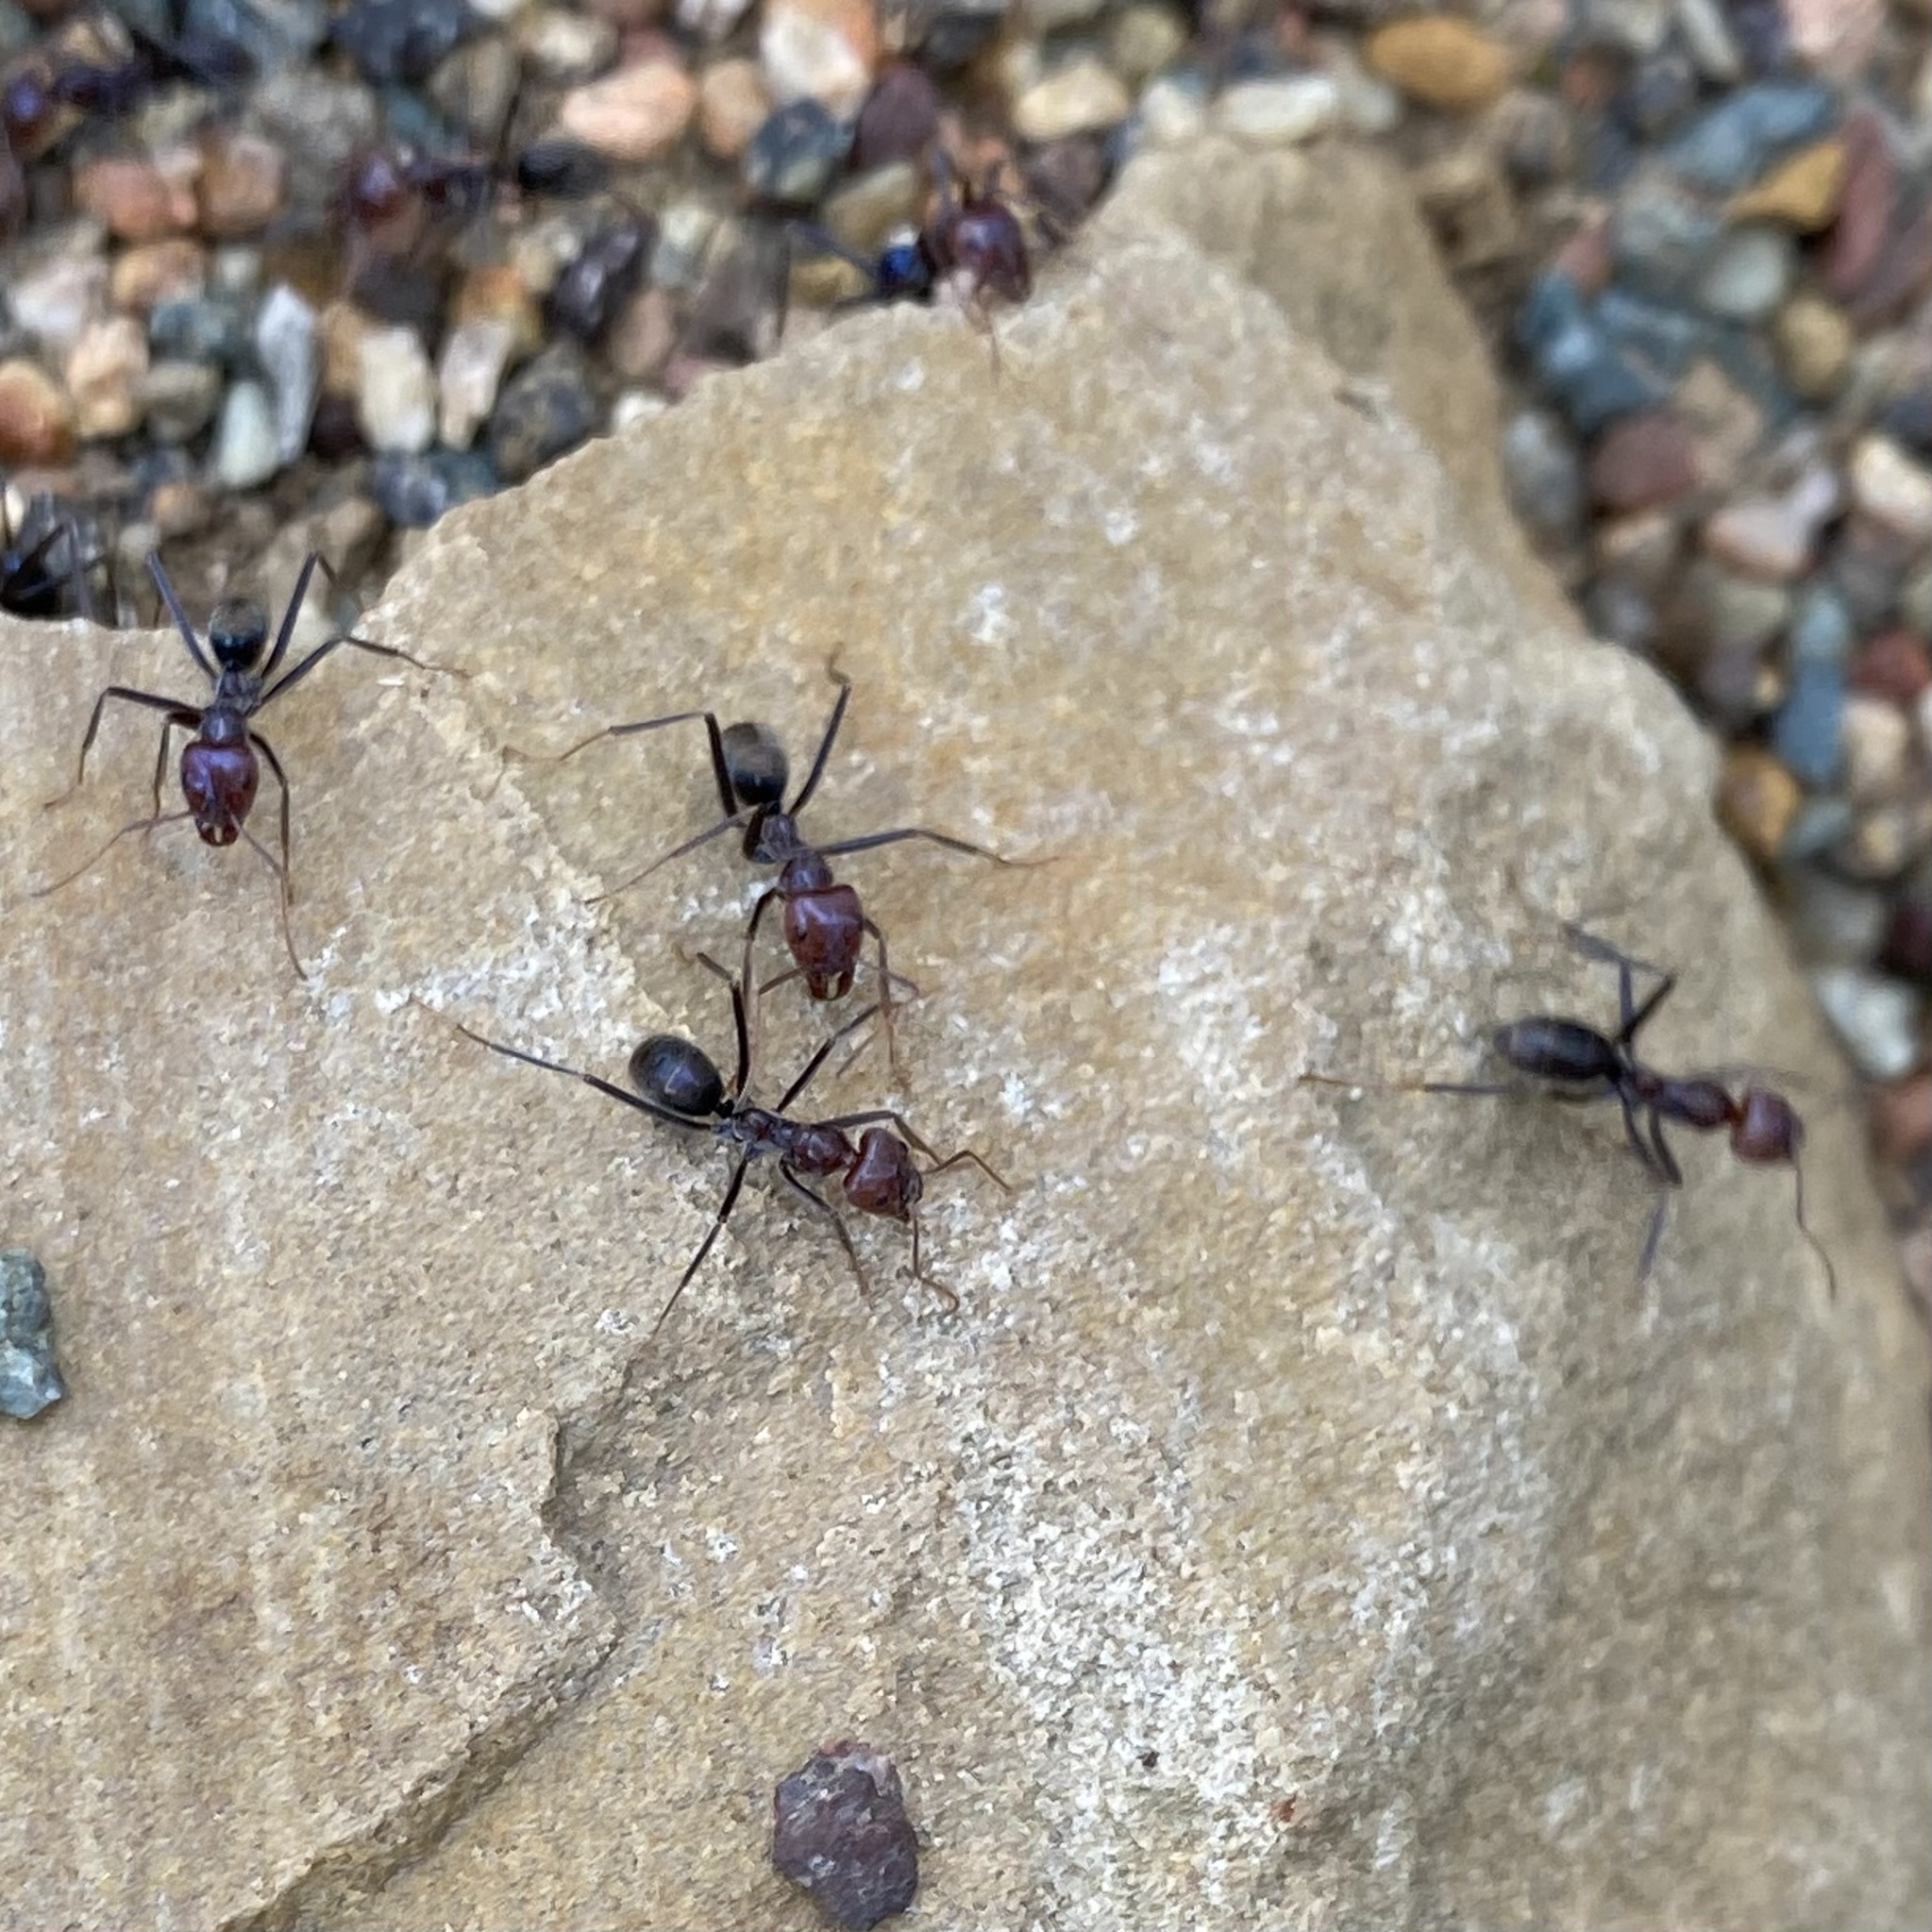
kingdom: Animalia
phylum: Arthropoda
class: Insecta
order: Hymenoptera
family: Formicidae
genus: Iridomyrmex
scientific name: Iridomyrmex purpureus
